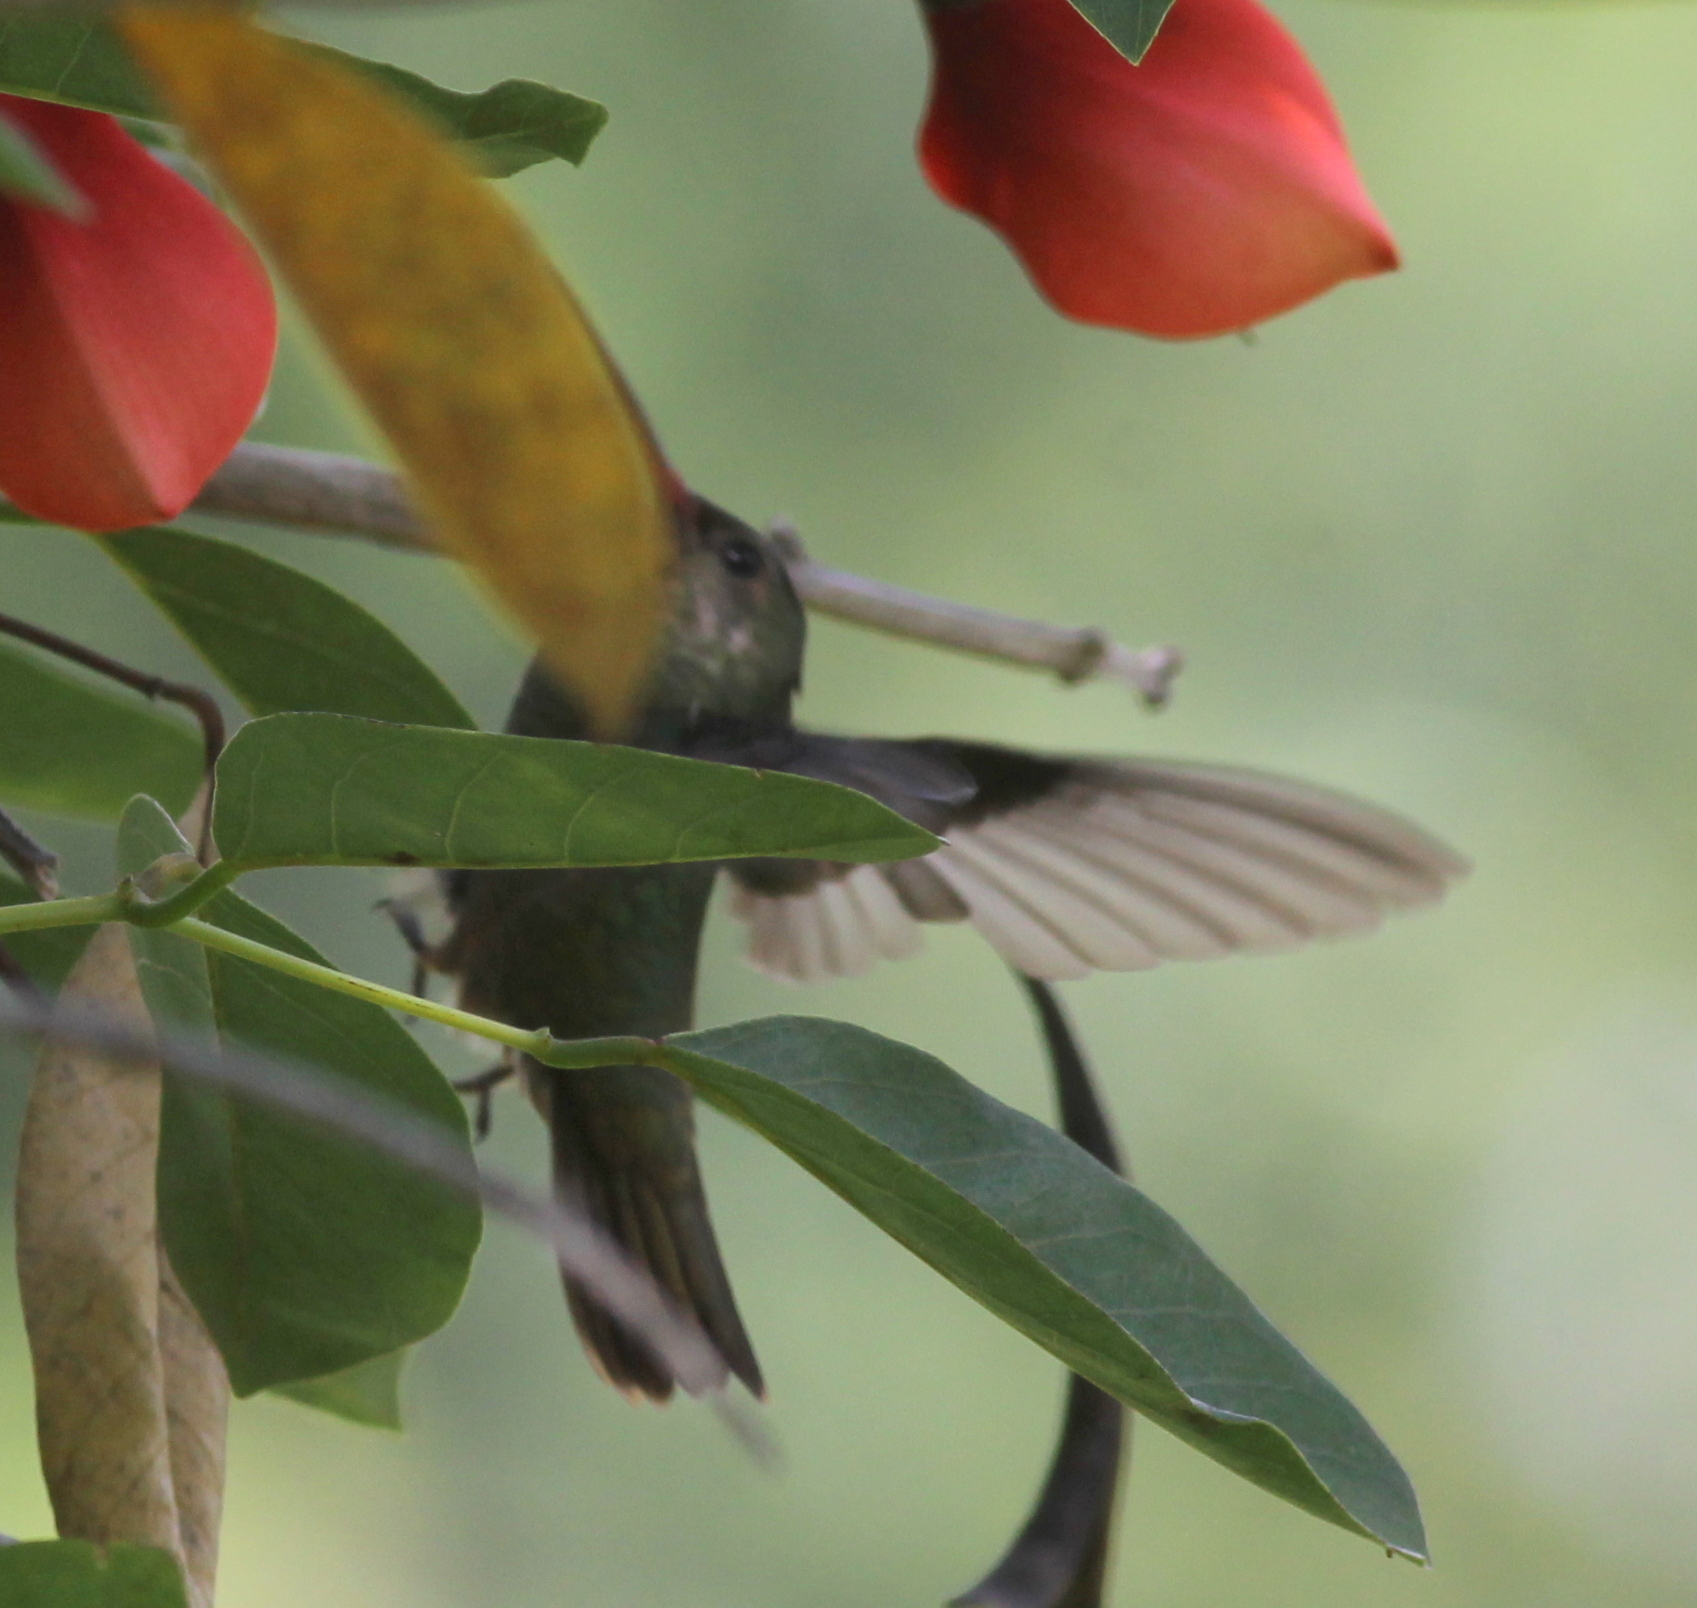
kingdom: Animalia
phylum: Chordata
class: Aves
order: Apodiformes
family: Trochilidae
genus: Hylocharis
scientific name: Hylocharis chrysura
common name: Gilded sapphire
